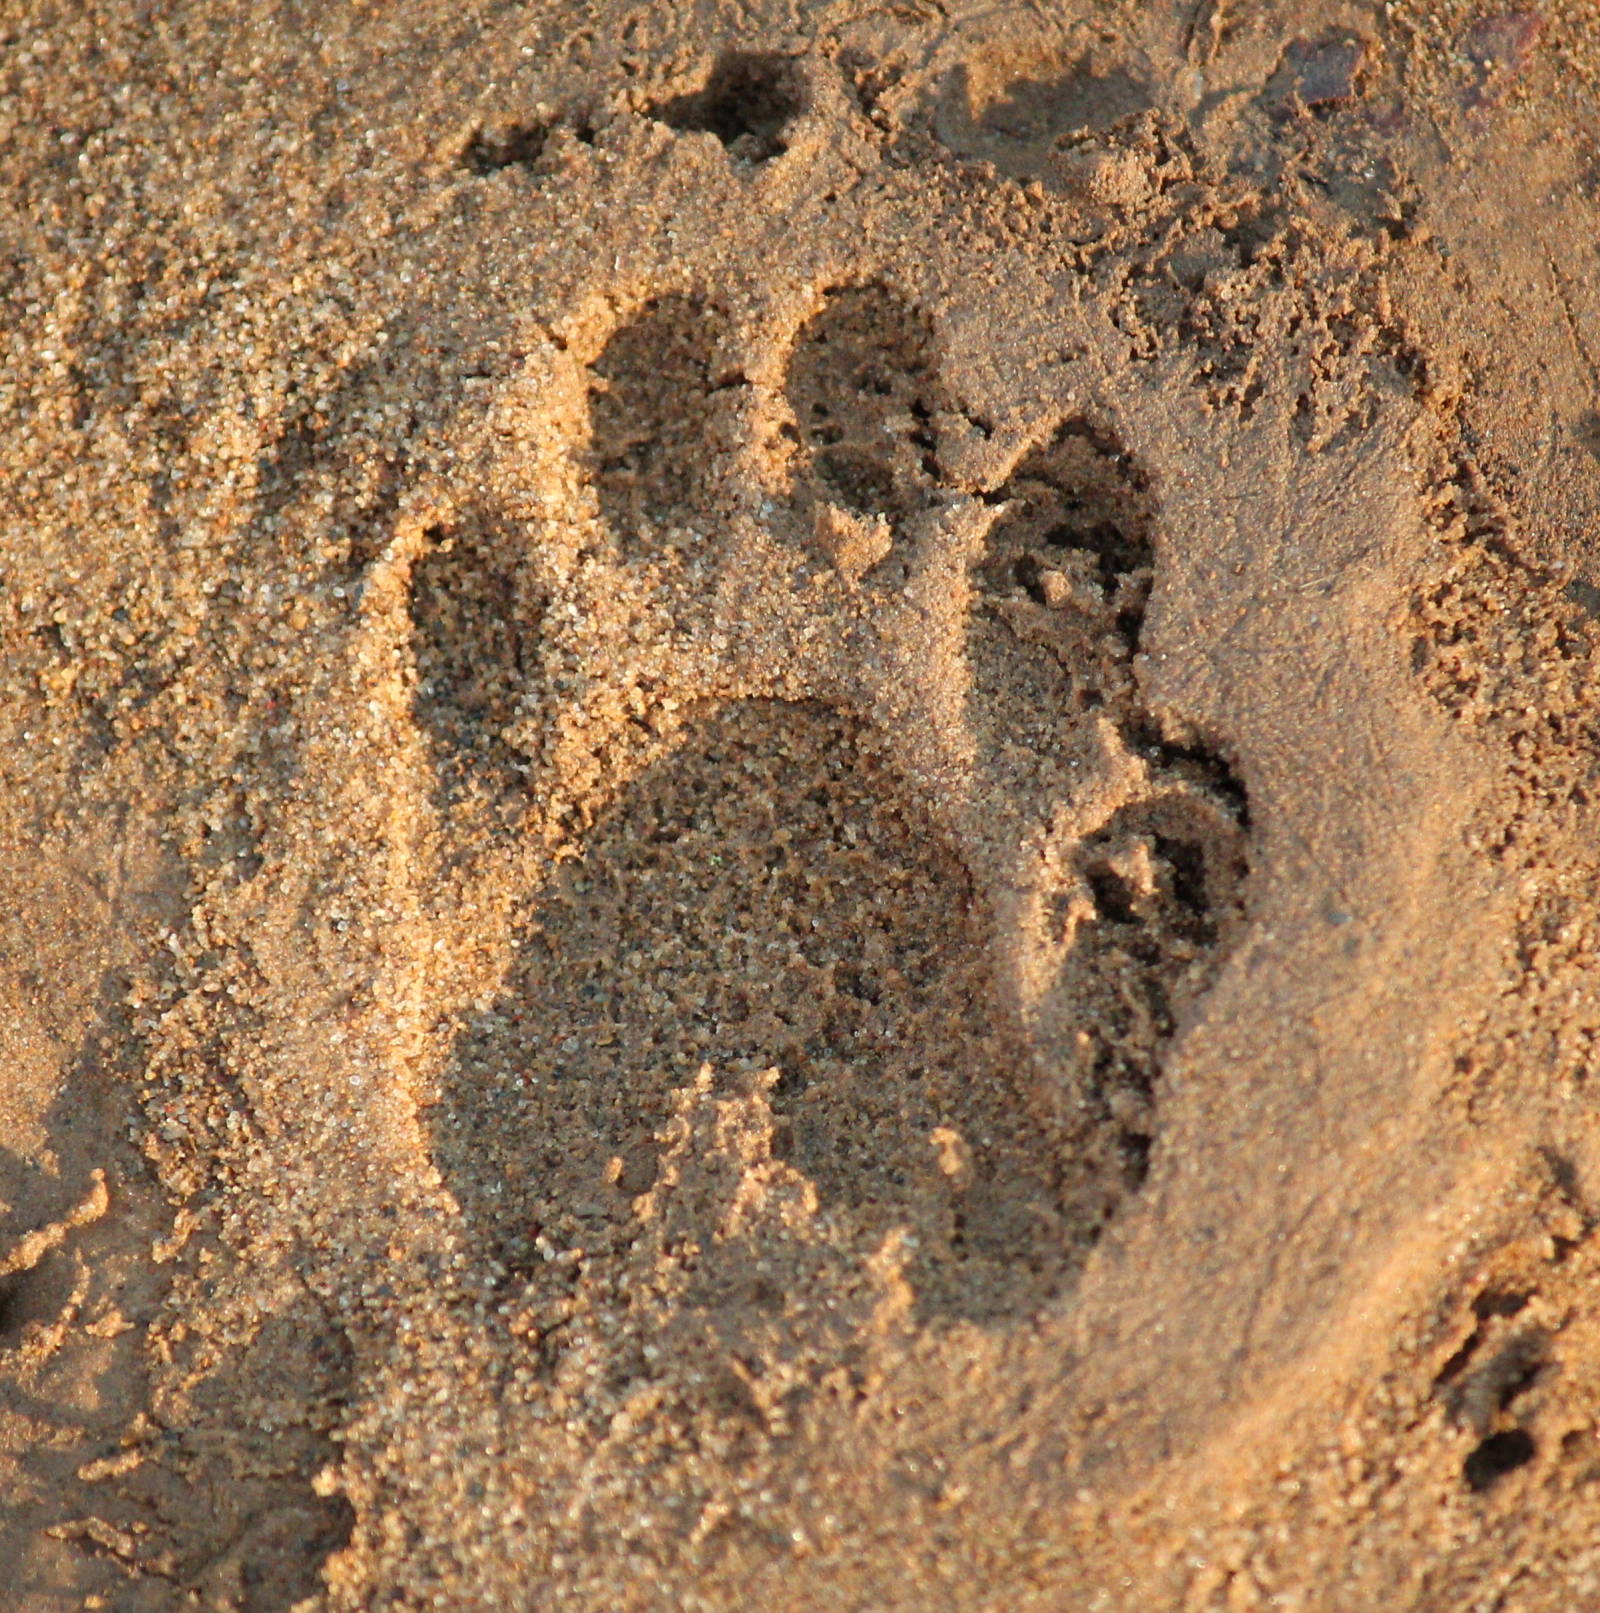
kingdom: Animalia
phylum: Chordata
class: Mammalia
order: Carnivora
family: Procyonidae
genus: Procyon
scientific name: Procyon lotor
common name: Raccoon
